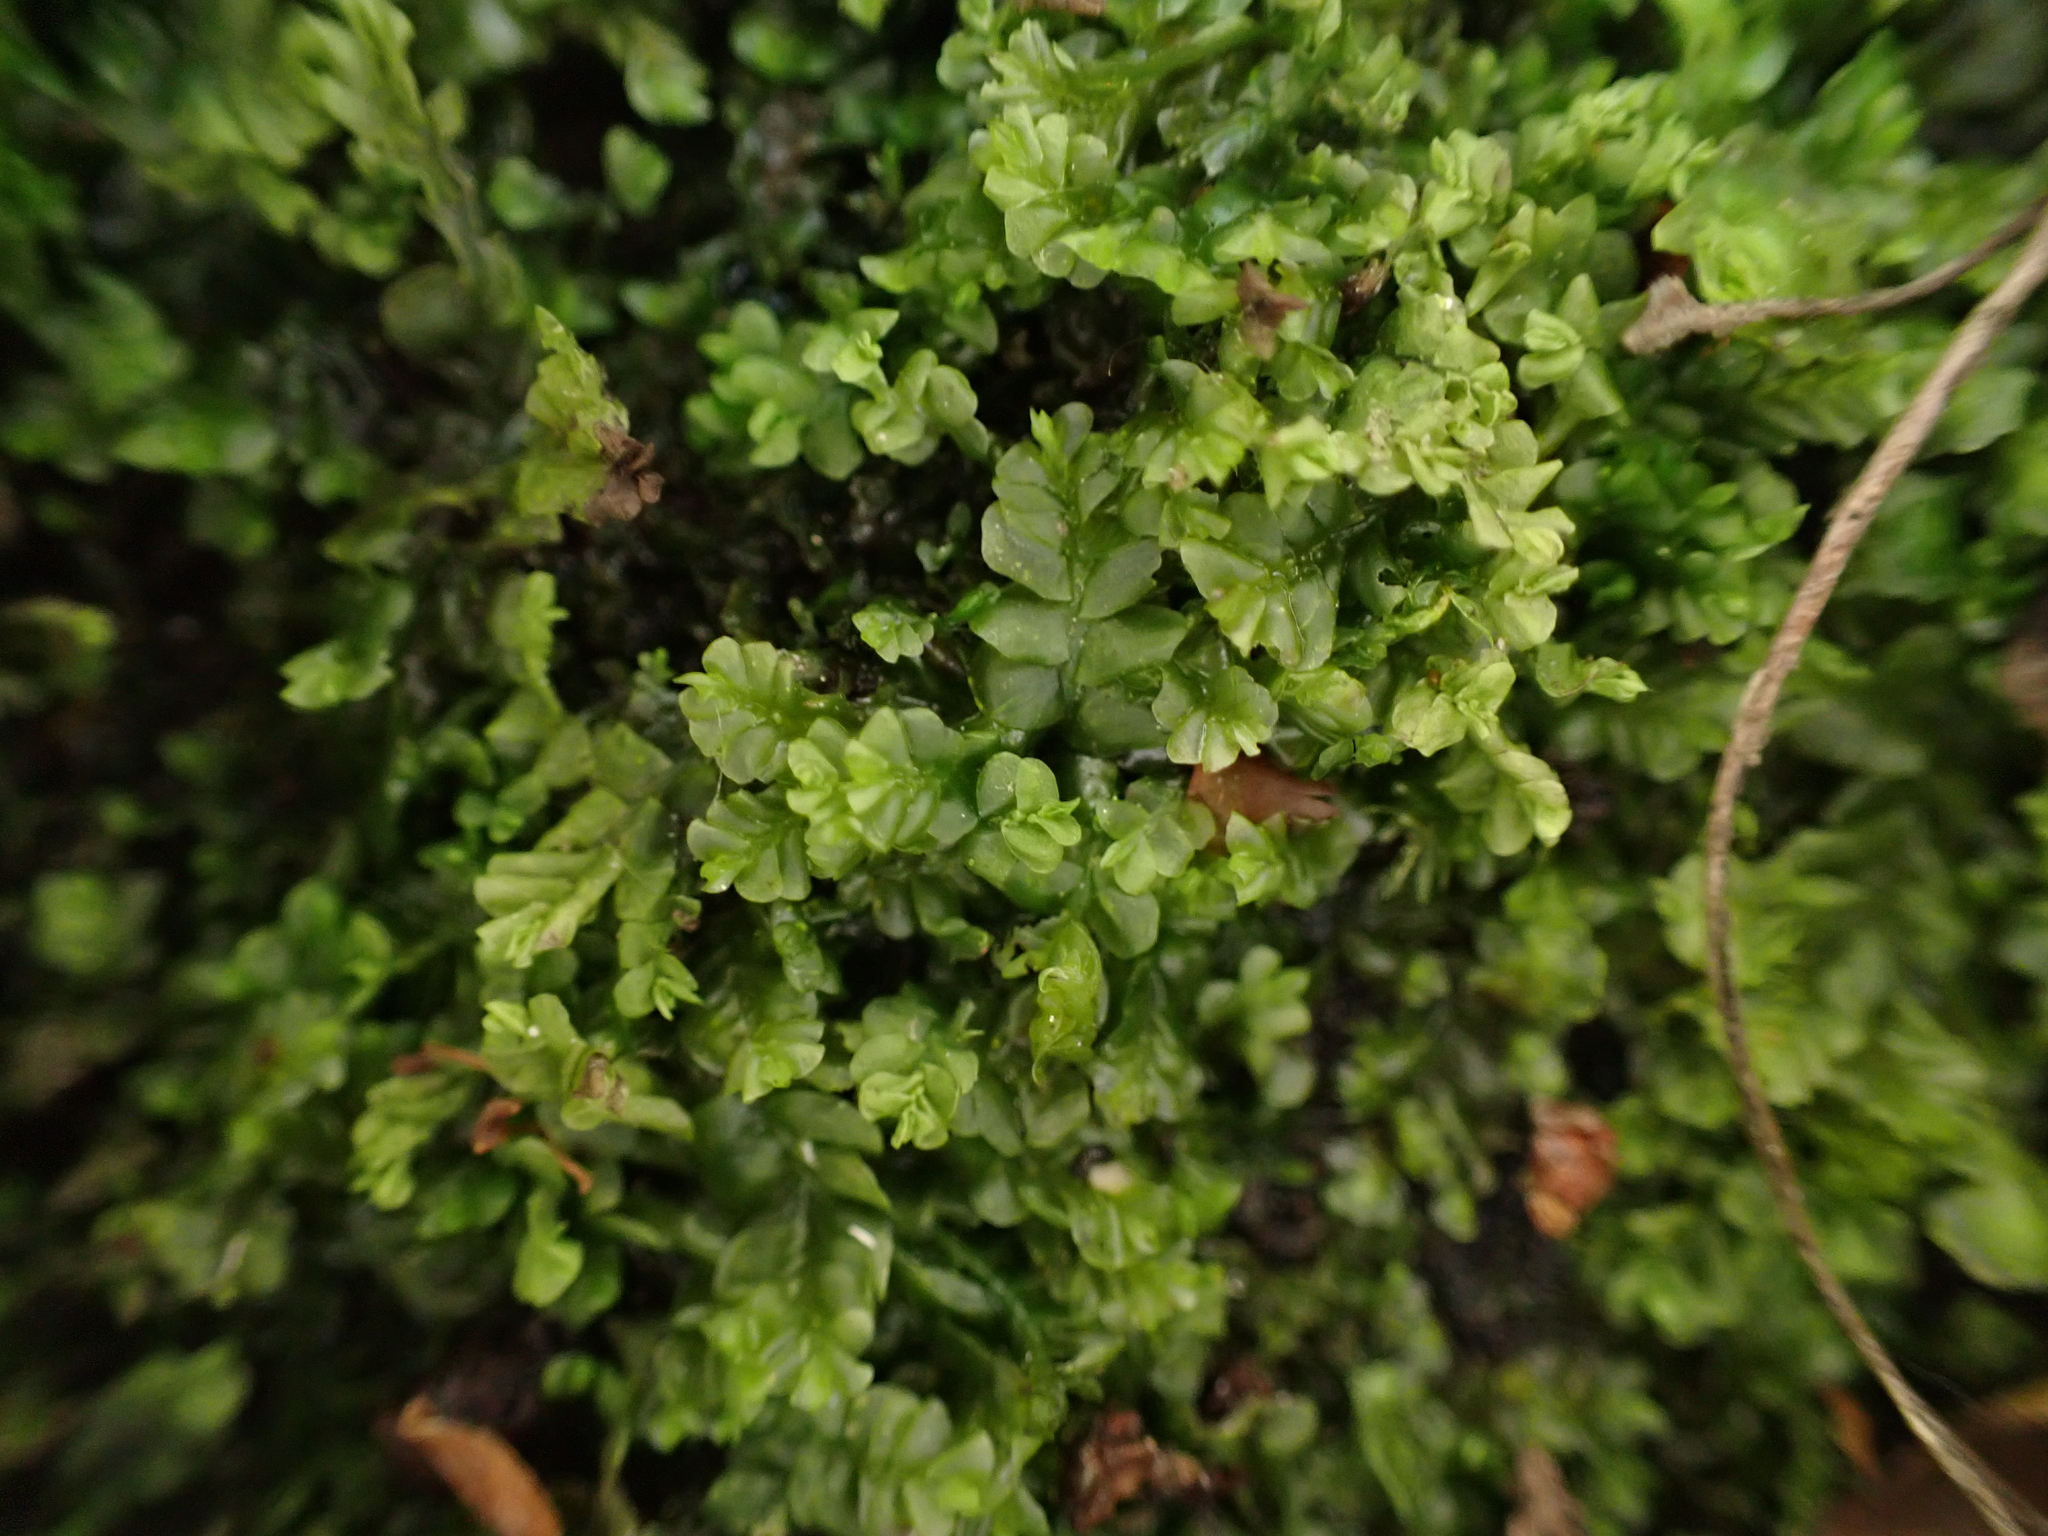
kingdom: Plantae
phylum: Marchantiophyta
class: Jungermanniopsida
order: Jungermanniales
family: Plagiochilaceae
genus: Plagiochila
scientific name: Plagiochila porelloides
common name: Lesser featherwort
